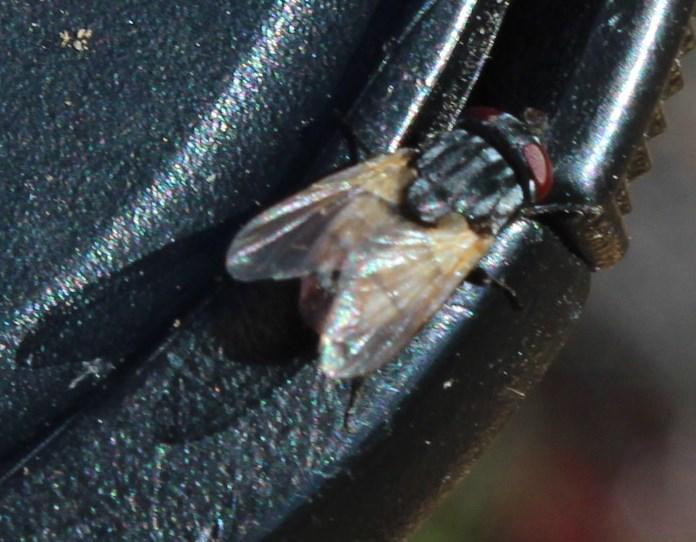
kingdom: Animalia
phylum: Arthropoda
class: Insecta
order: Diptera
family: Muscidae
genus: Musca
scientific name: Musca domestica
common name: House fly
